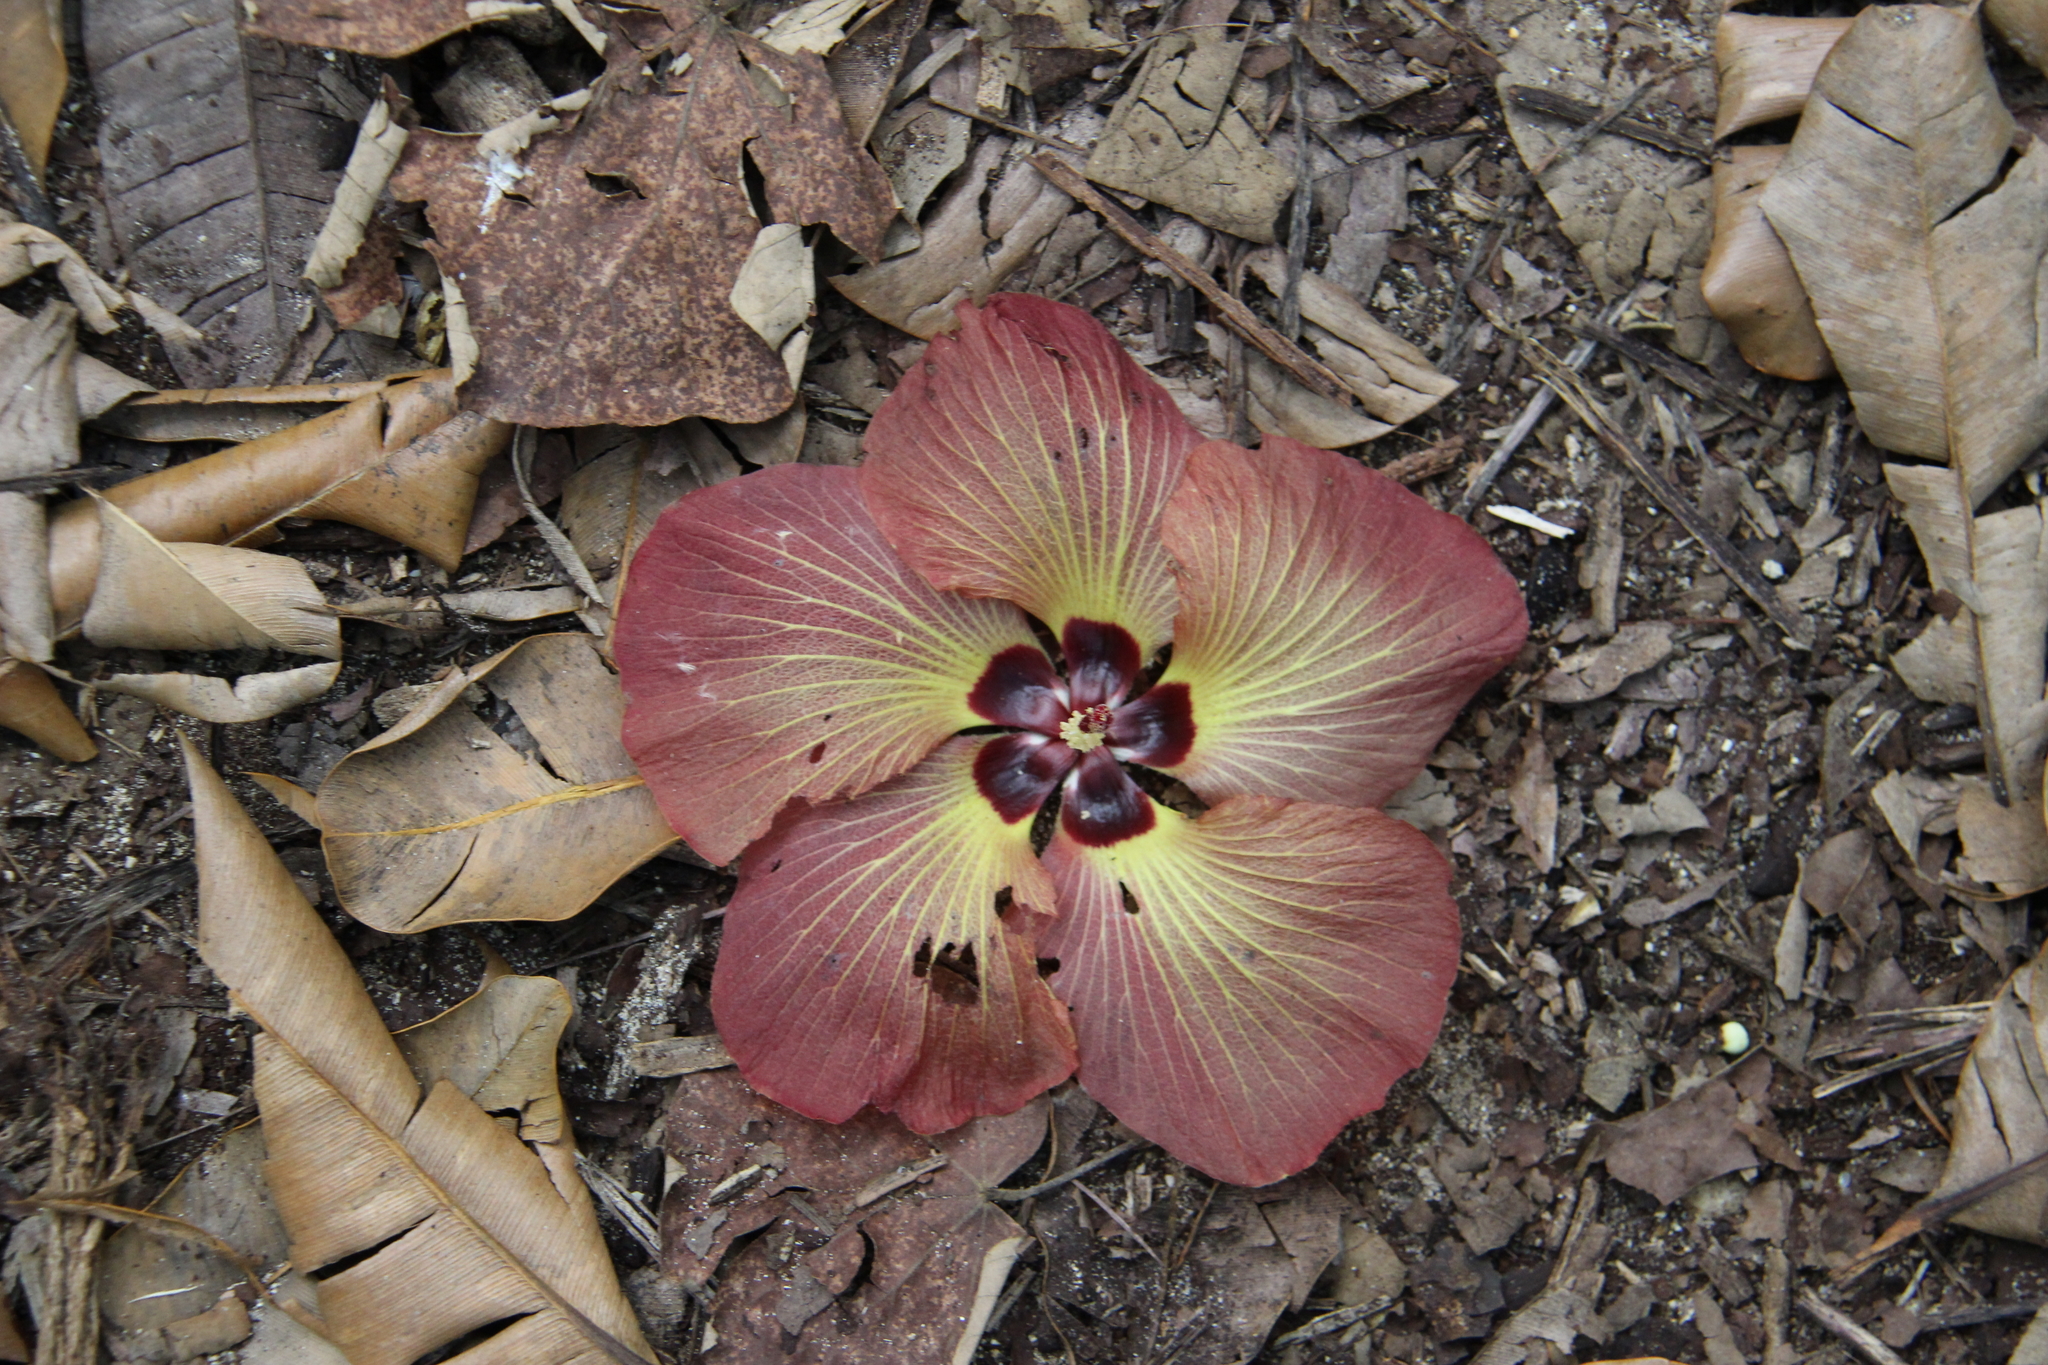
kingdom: Plantae
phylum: Tracheophyta
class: Magnoliopsida
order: Malvales
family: Malvaceae
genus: Talipariti
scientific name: Talipariti tiliaceum
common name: Sea hibiscus
